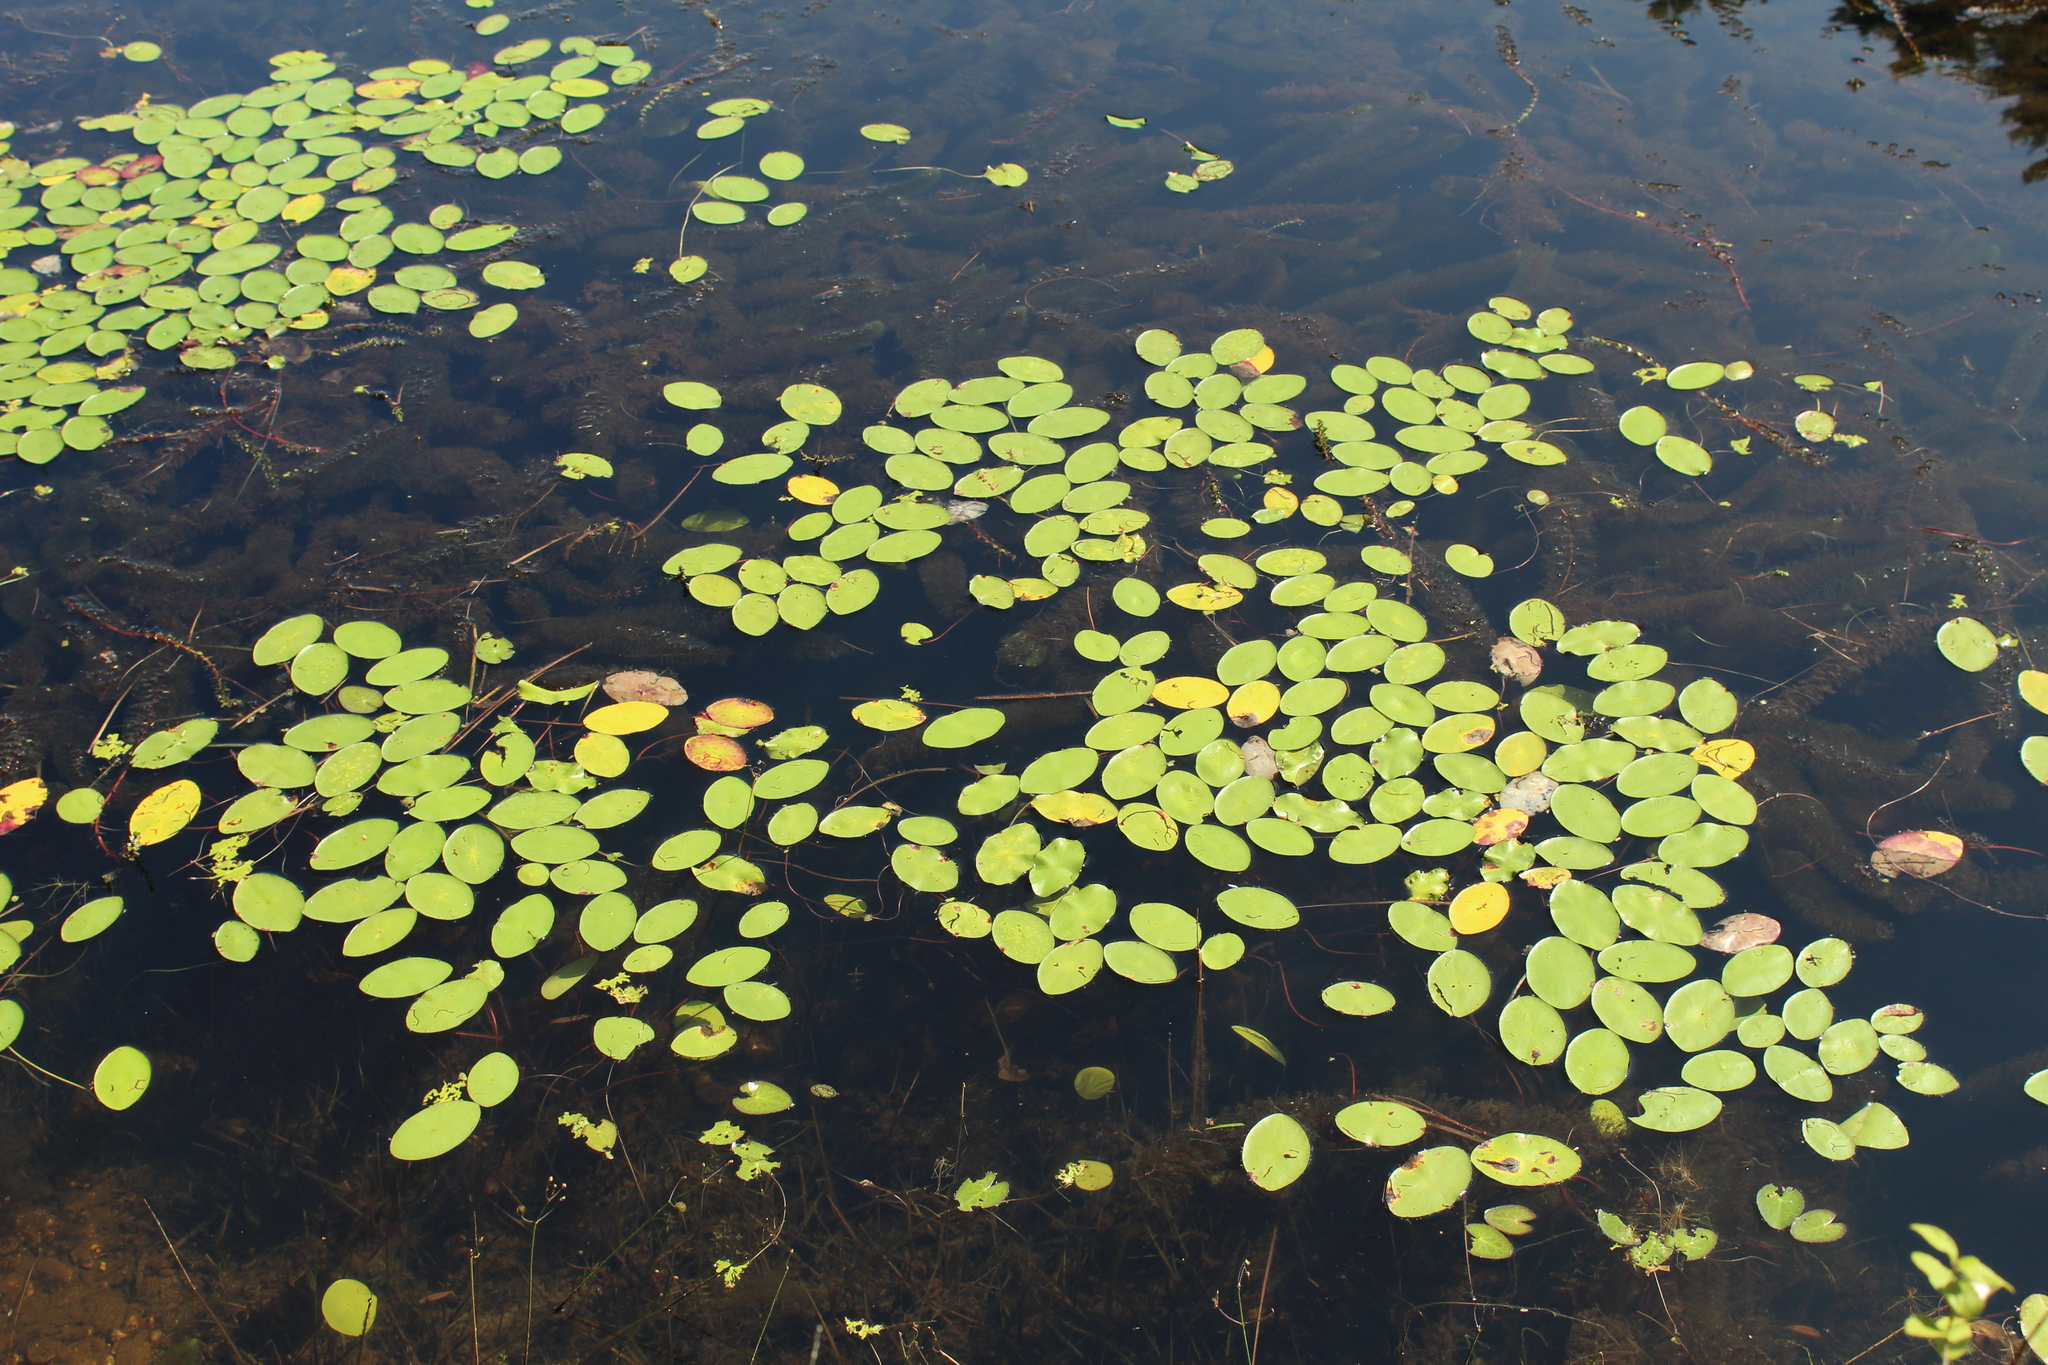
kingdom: Plantae
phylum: Tracheophyta
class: Magnoliopsida
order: Nymphaeales
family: Cabombaceae
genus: Brasenia
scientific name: Brasenia schreberi
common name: Water-shield
